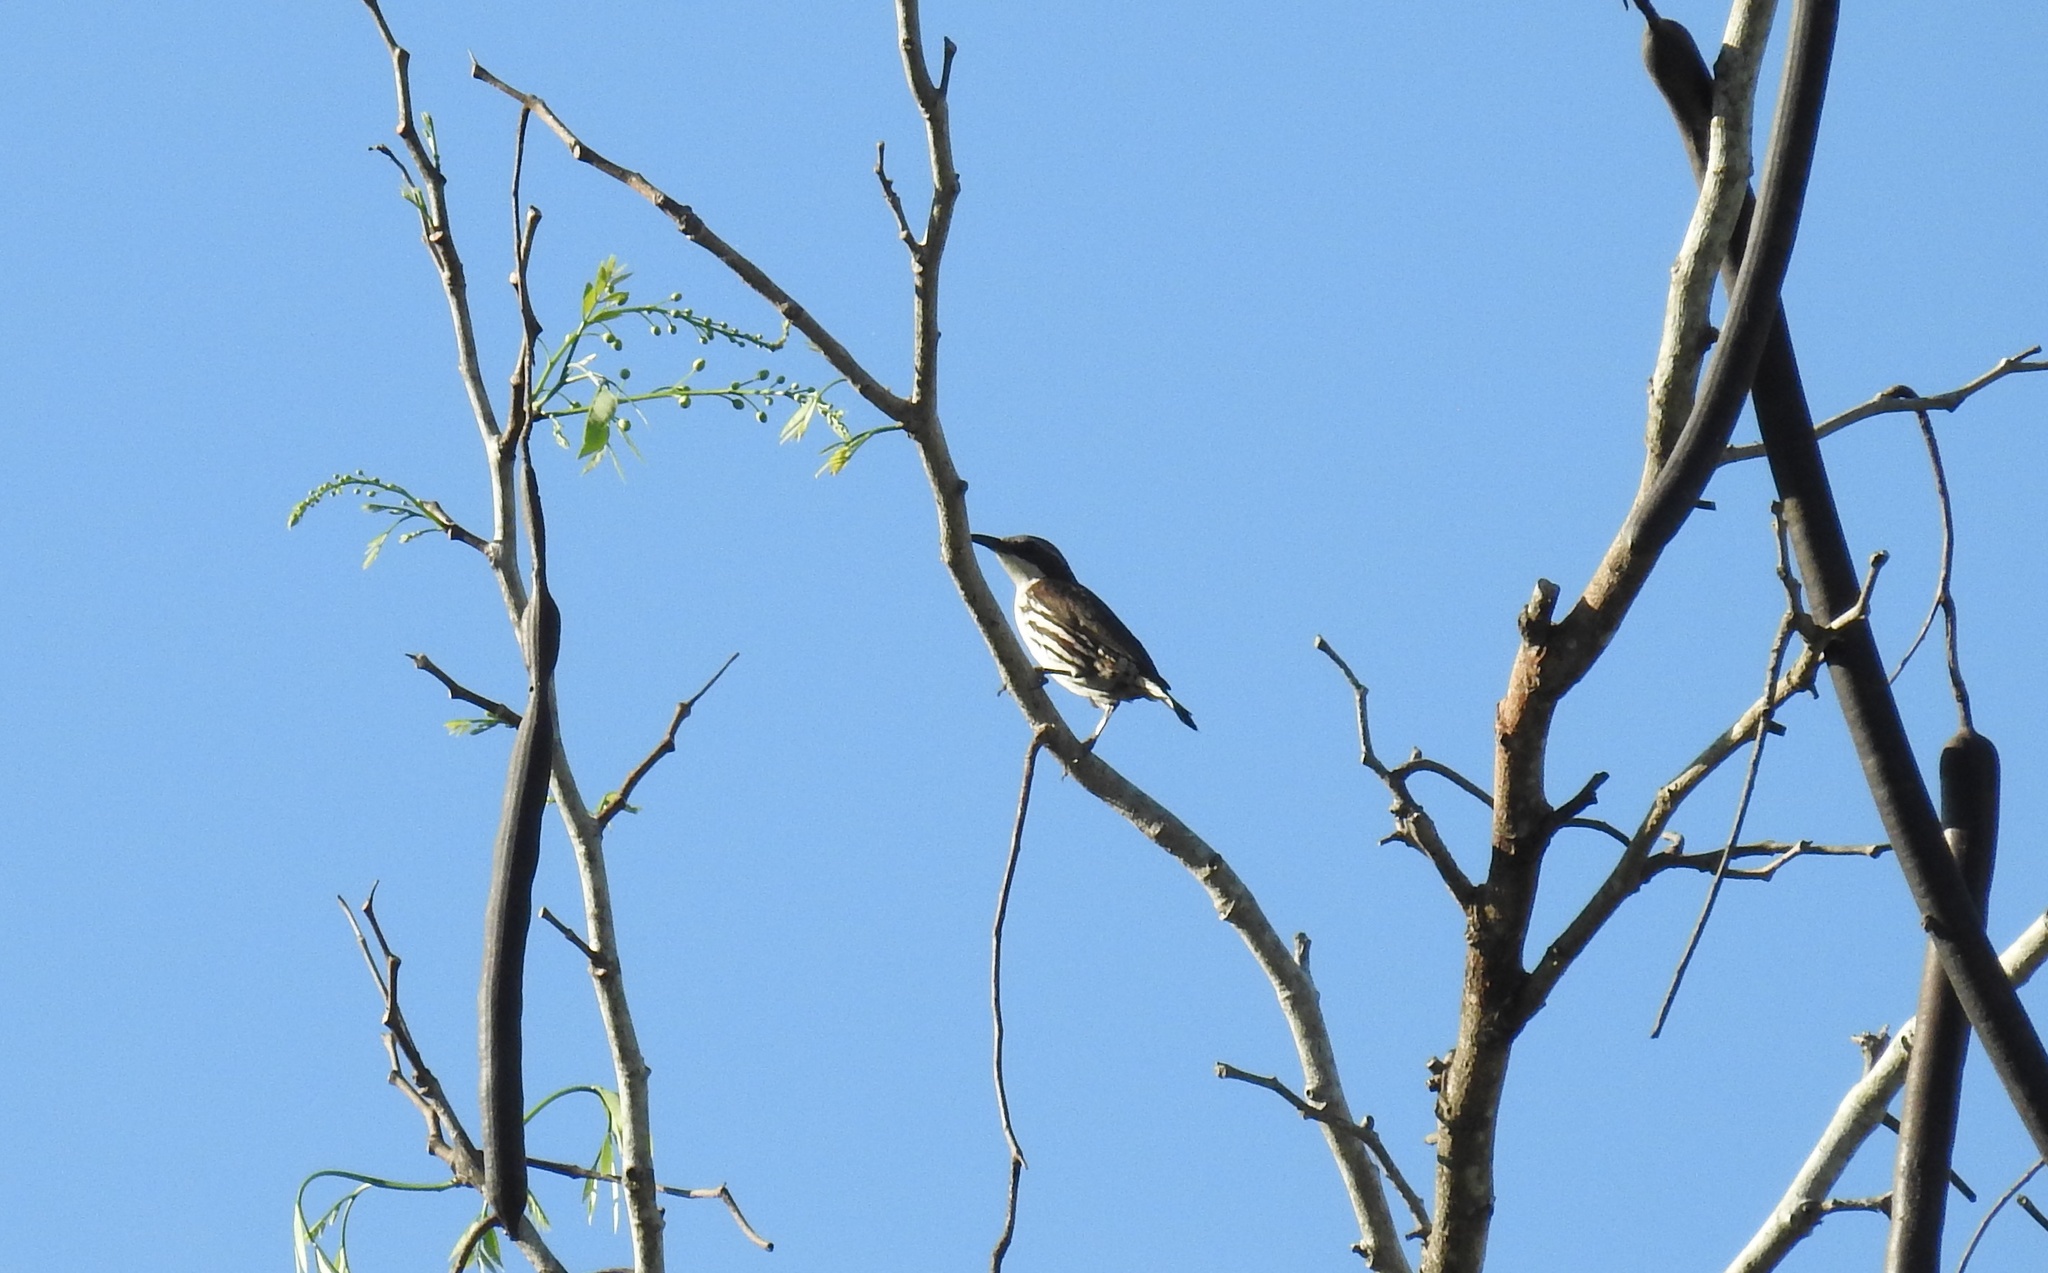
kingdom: Animalia
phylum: Chordata
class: Aves
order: Passeriformes
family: Sturnidae
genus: Rhabdornis
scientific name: Rhabdornis mystacalis
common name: Stripe-headed rhabdornis
